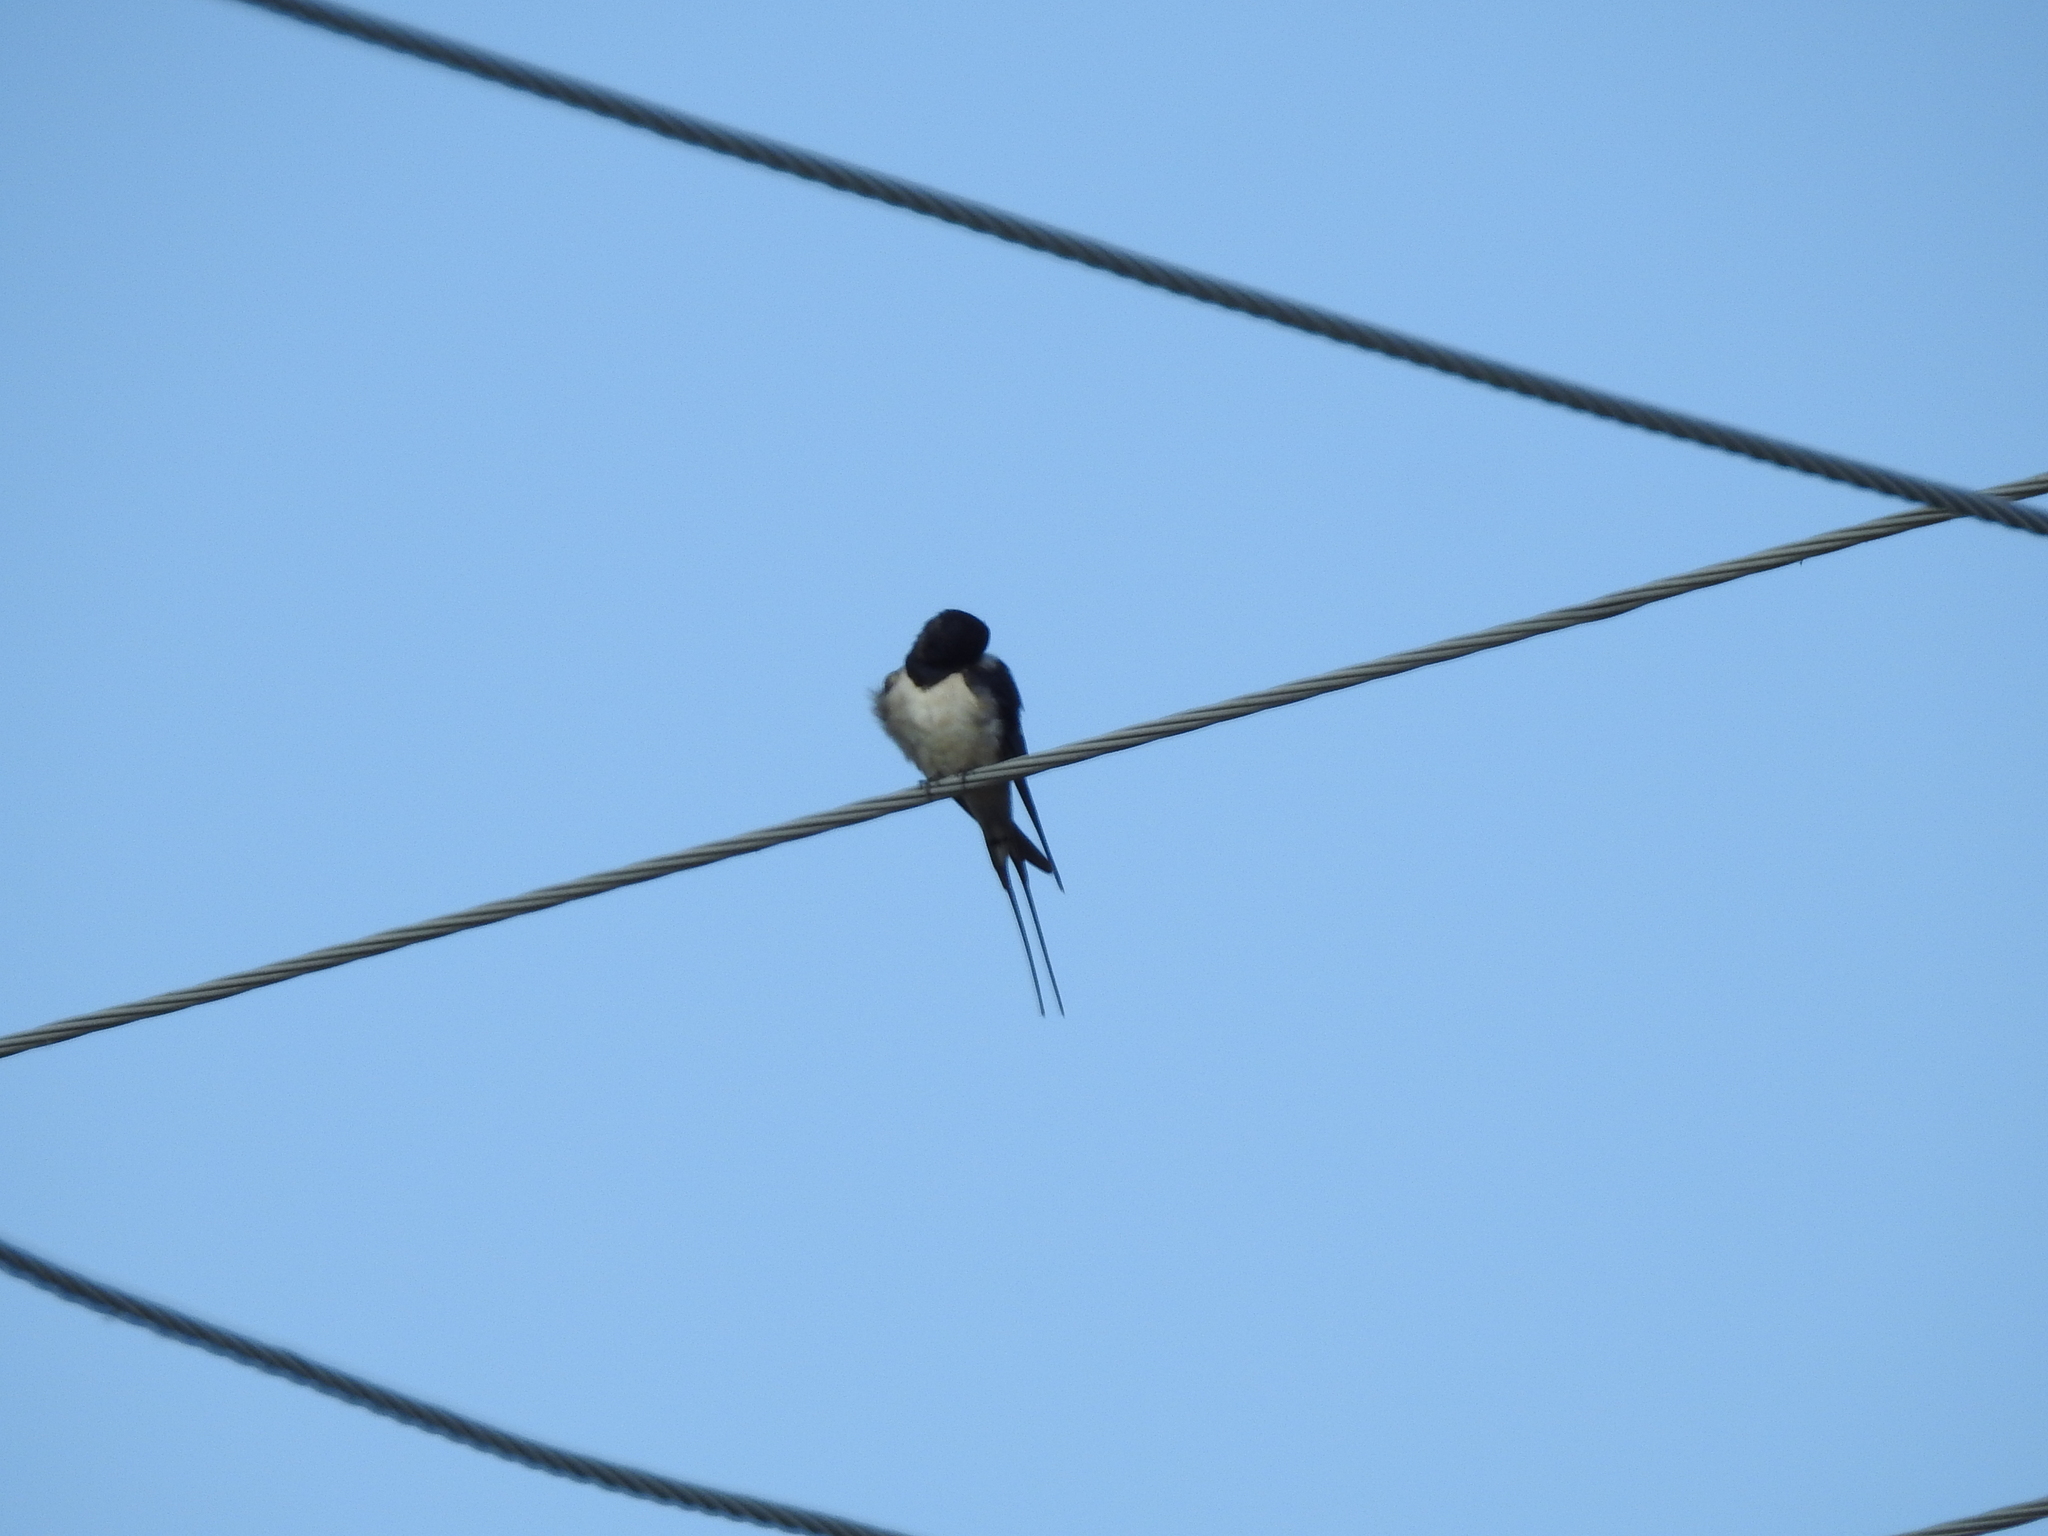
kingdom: Animalia
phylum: Chordata
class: Aves
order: Passeriformes
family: Hirundinidae
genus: Hirundo
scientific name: Hirundo rustica
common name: Barn swallow
